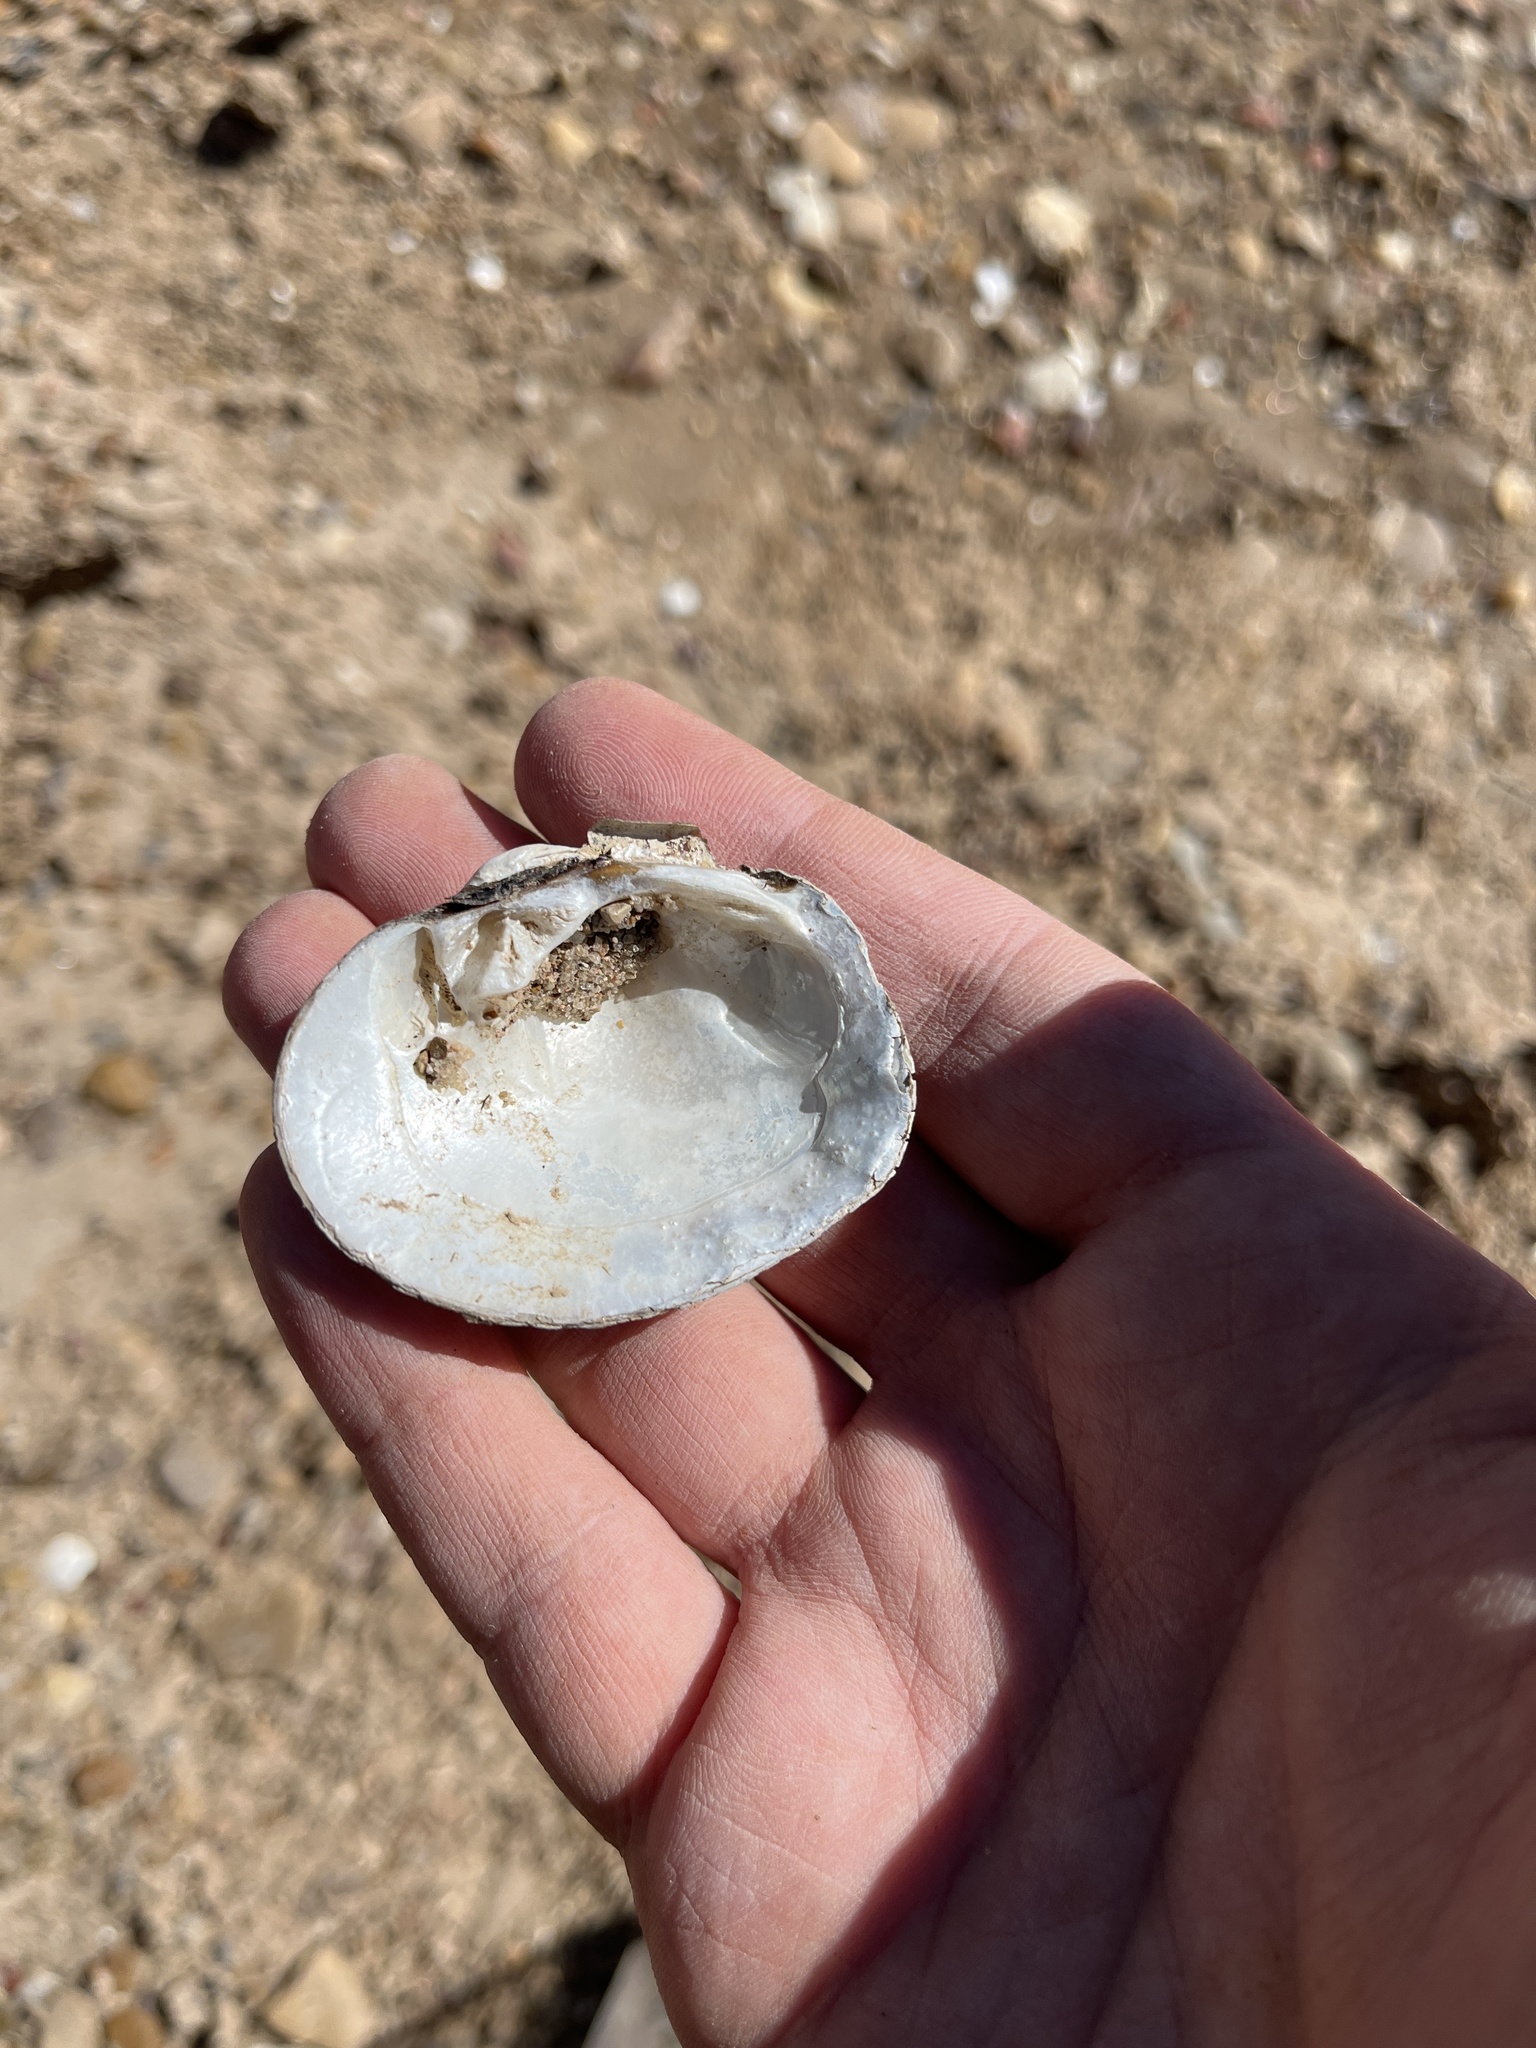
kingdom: Animalia
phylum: Mollusca
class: Bivalvia
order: Unionida
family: Unionidae
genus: Cyclonaias
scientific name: Cyclonaias pustulosa
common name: Pimpleback
